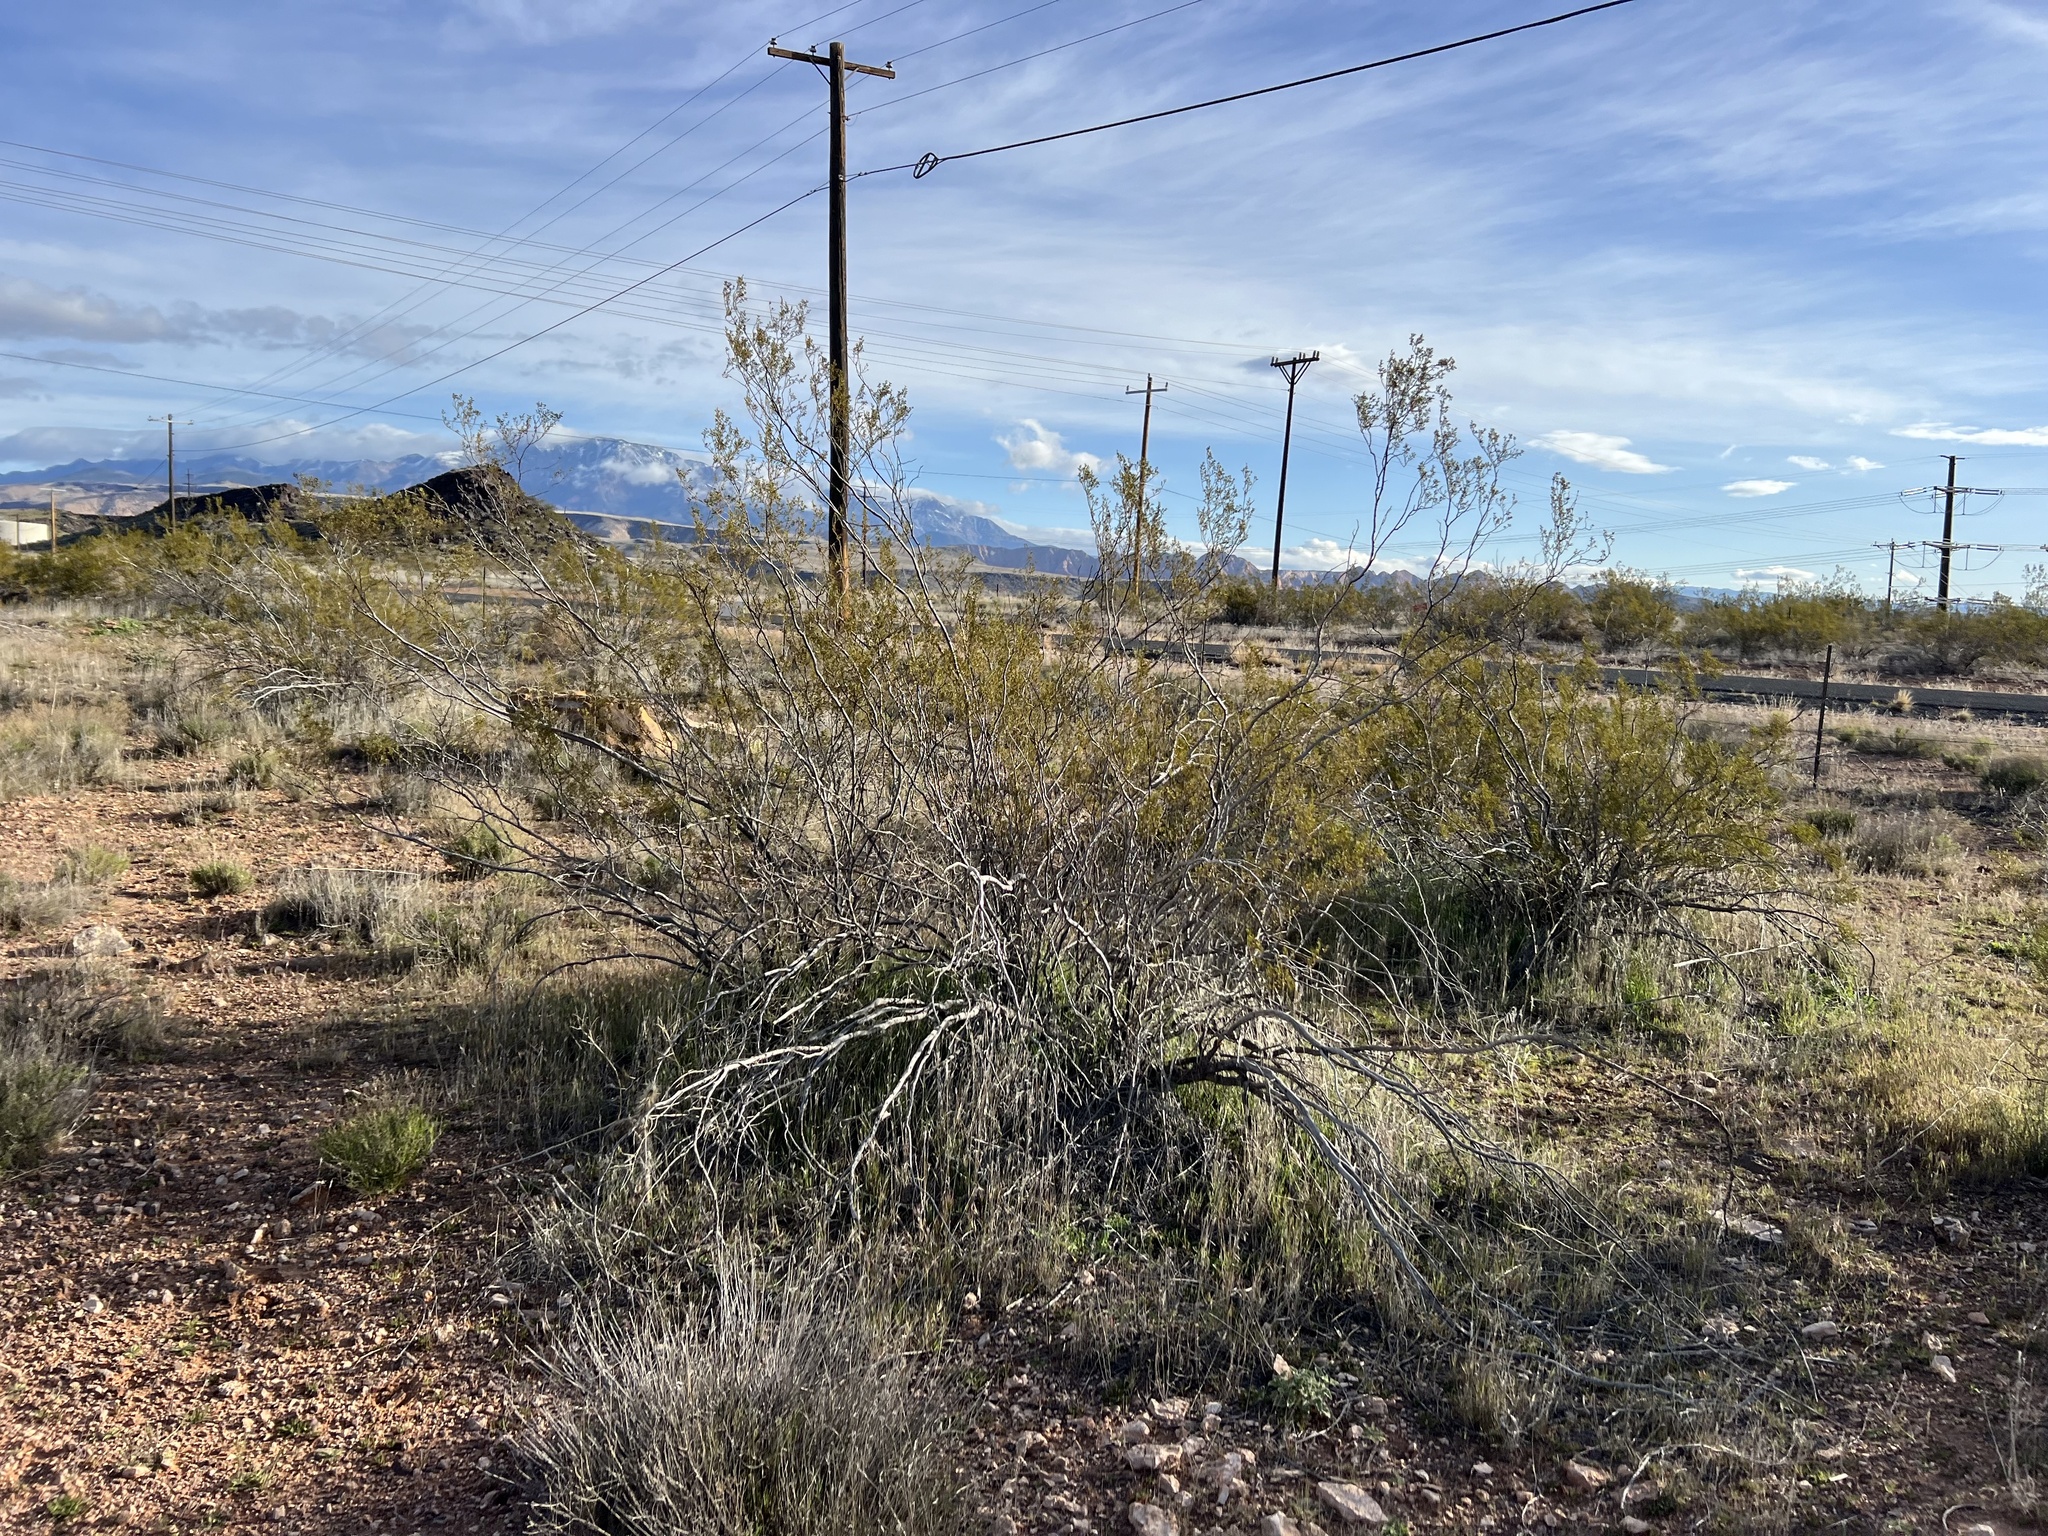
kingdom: Plantae
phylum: Tracheophyta
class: Magnoliopsida
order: Zygophyllales
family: Zygophyllaceae
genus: Larrea
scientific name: Larrea tridentata
